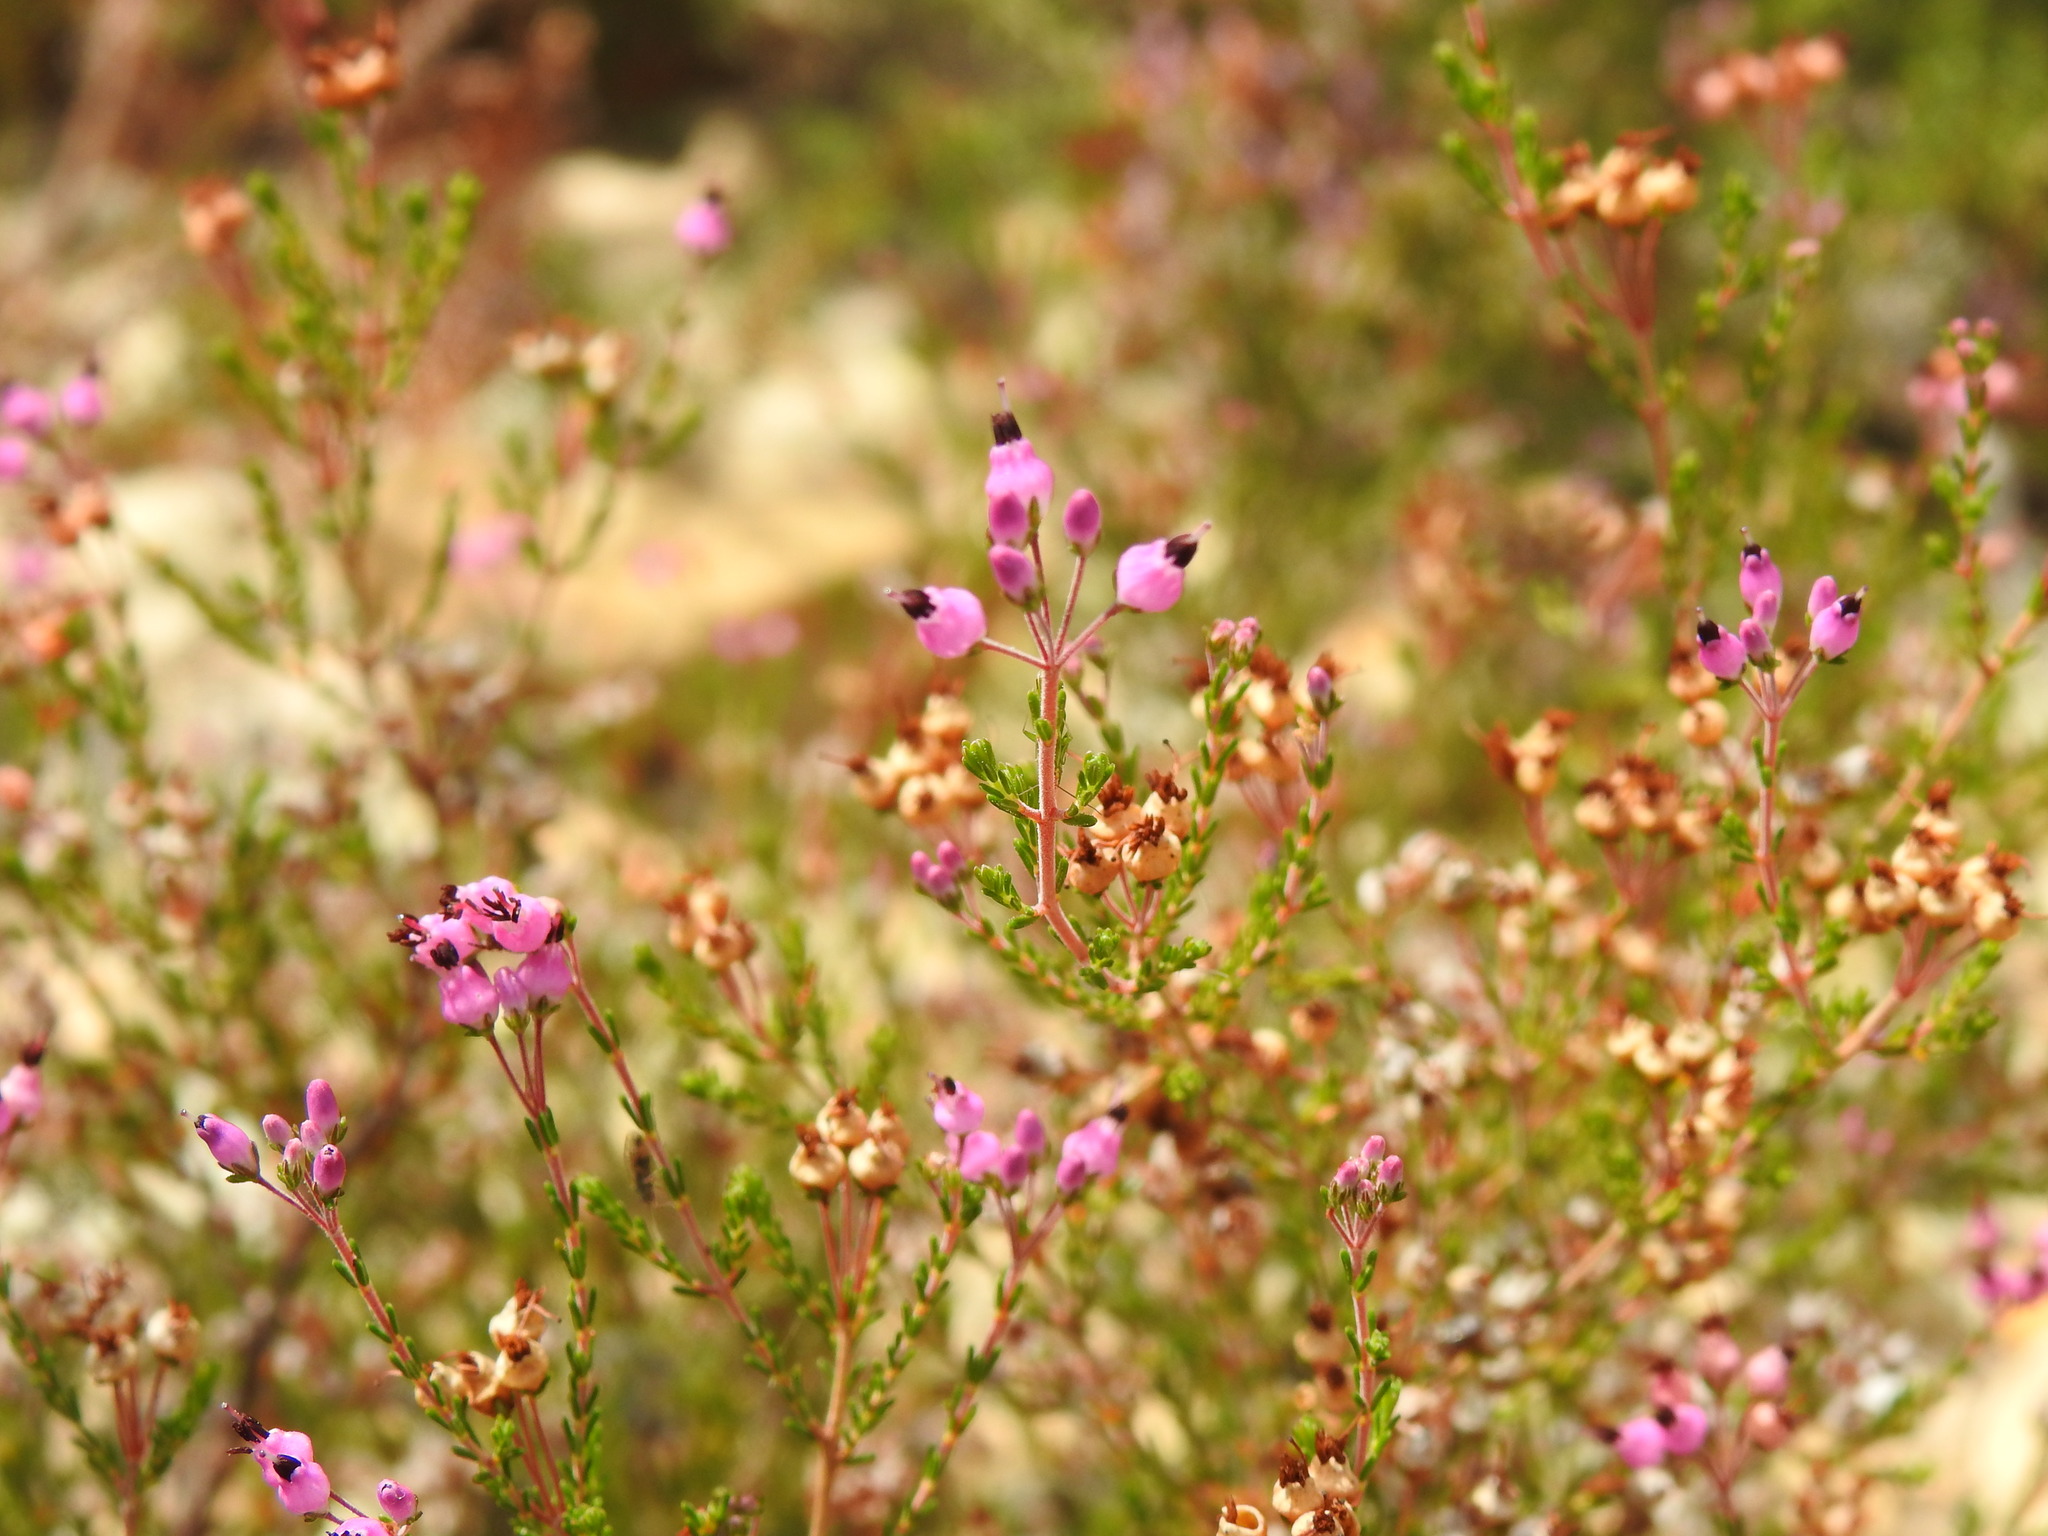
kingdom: Plantae
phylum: Tracheophyta
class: Magnoliopsida
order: Ericales
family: Ericaceae
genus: Erica
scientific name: Erica umbellata
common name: Dwarf spanish heath
